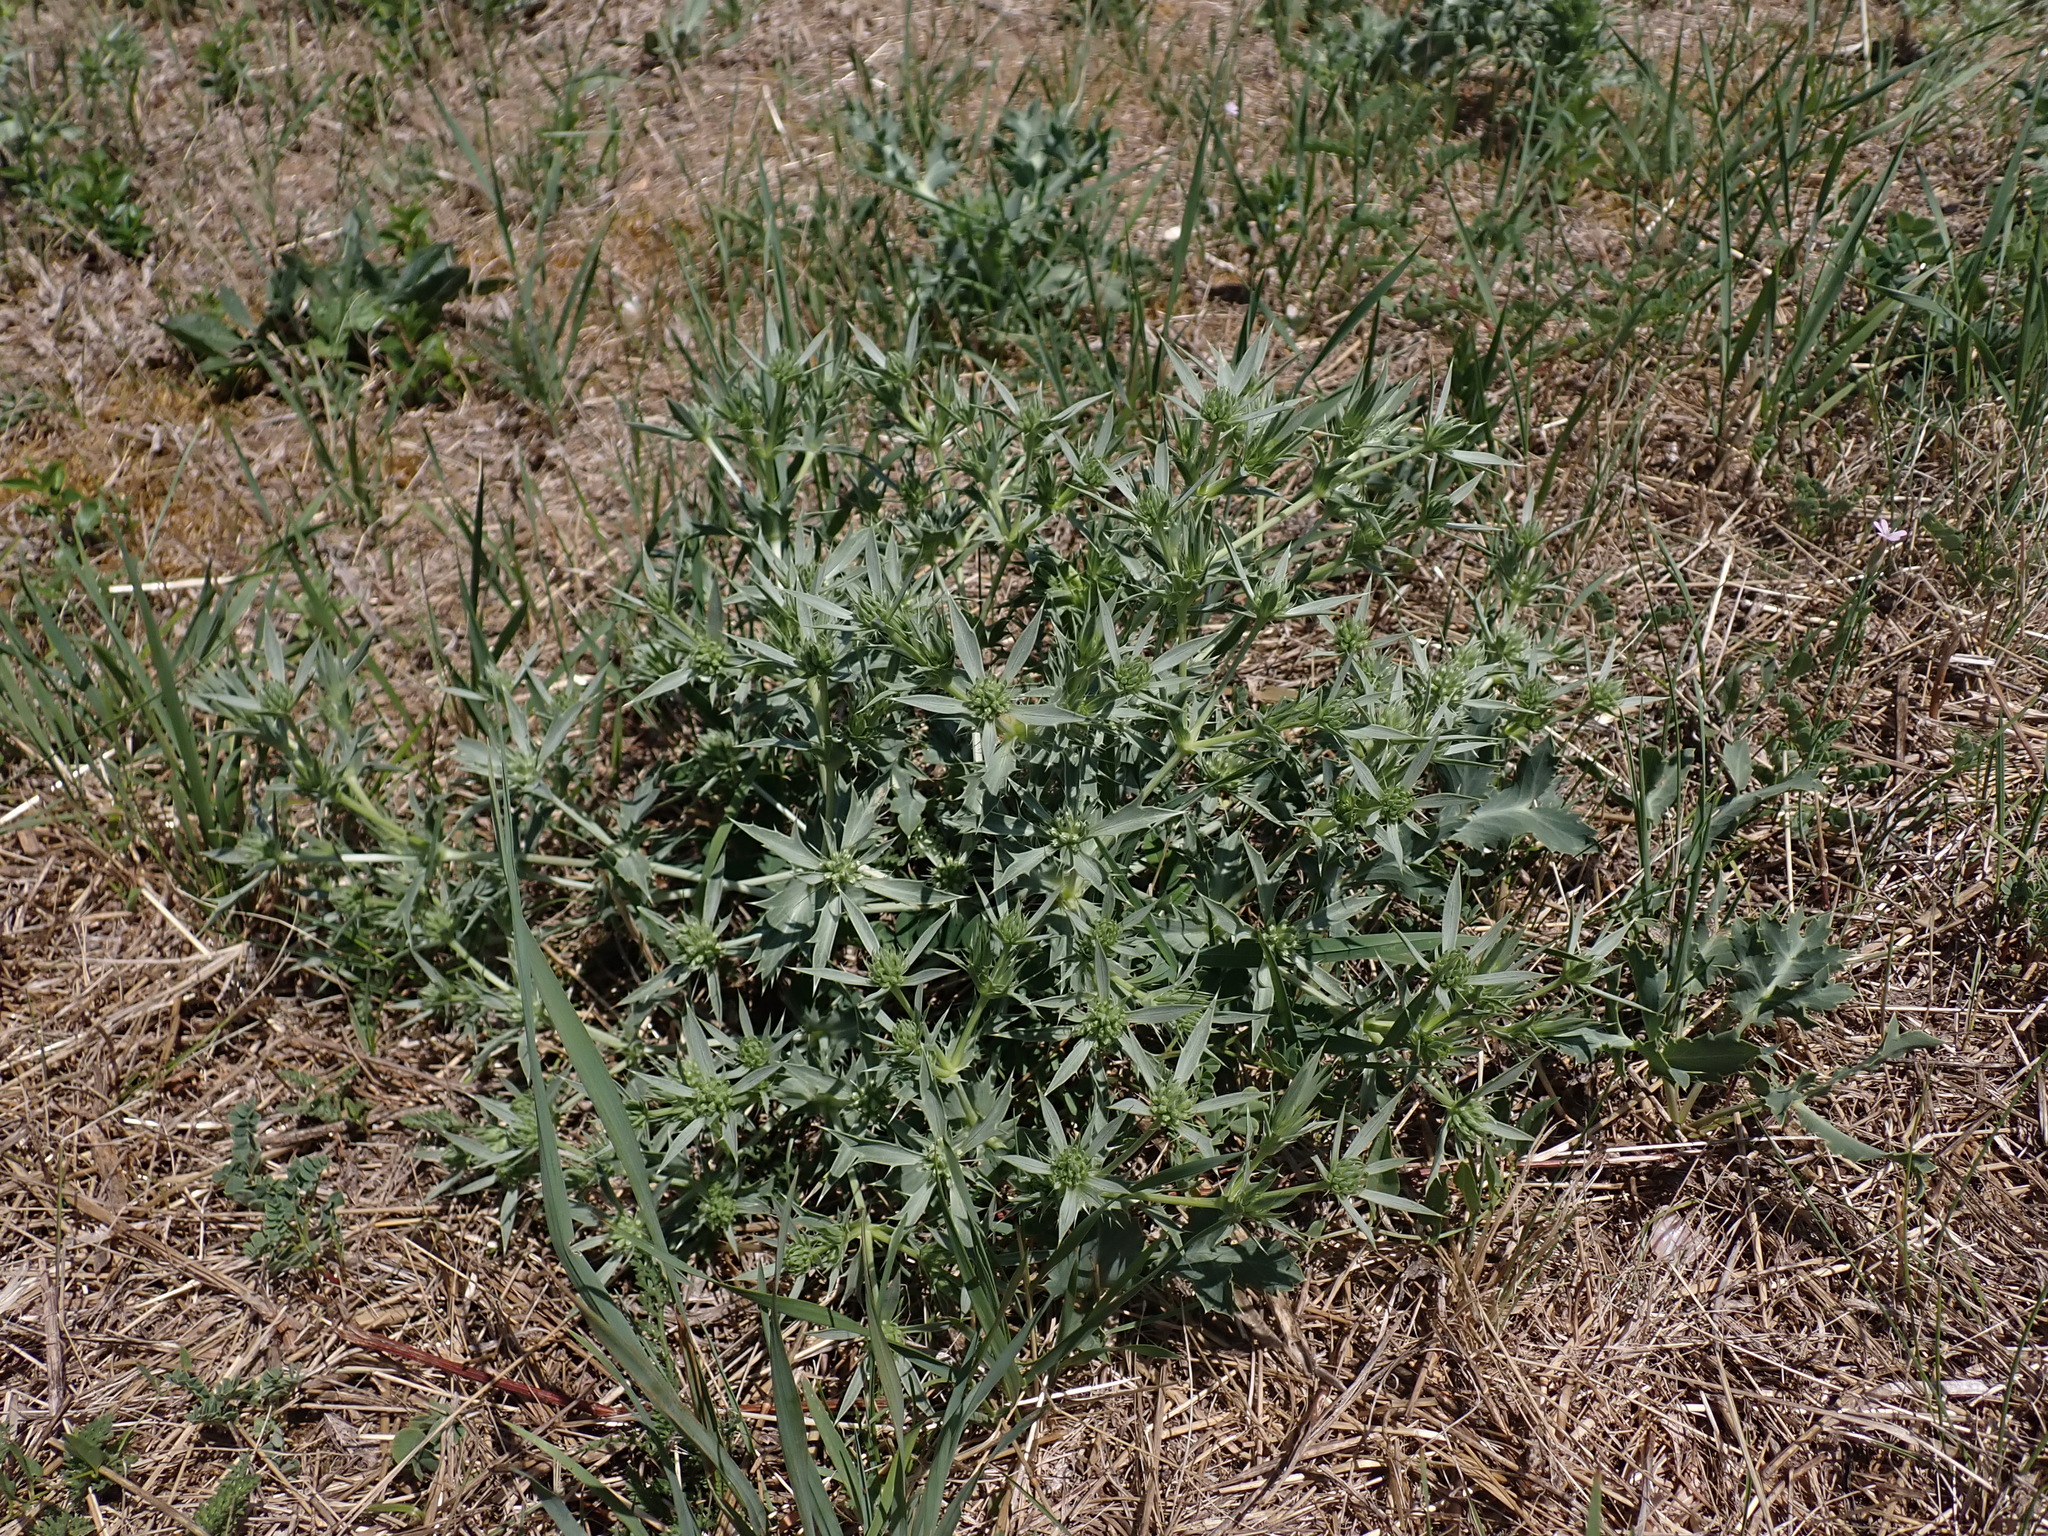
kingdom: Plantae
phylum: Tracheophyta
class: Magnoliopsida
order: Apiales
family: Apiaceae
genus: Eryngium
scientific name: Eryngium campestre
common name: Field eryngo
